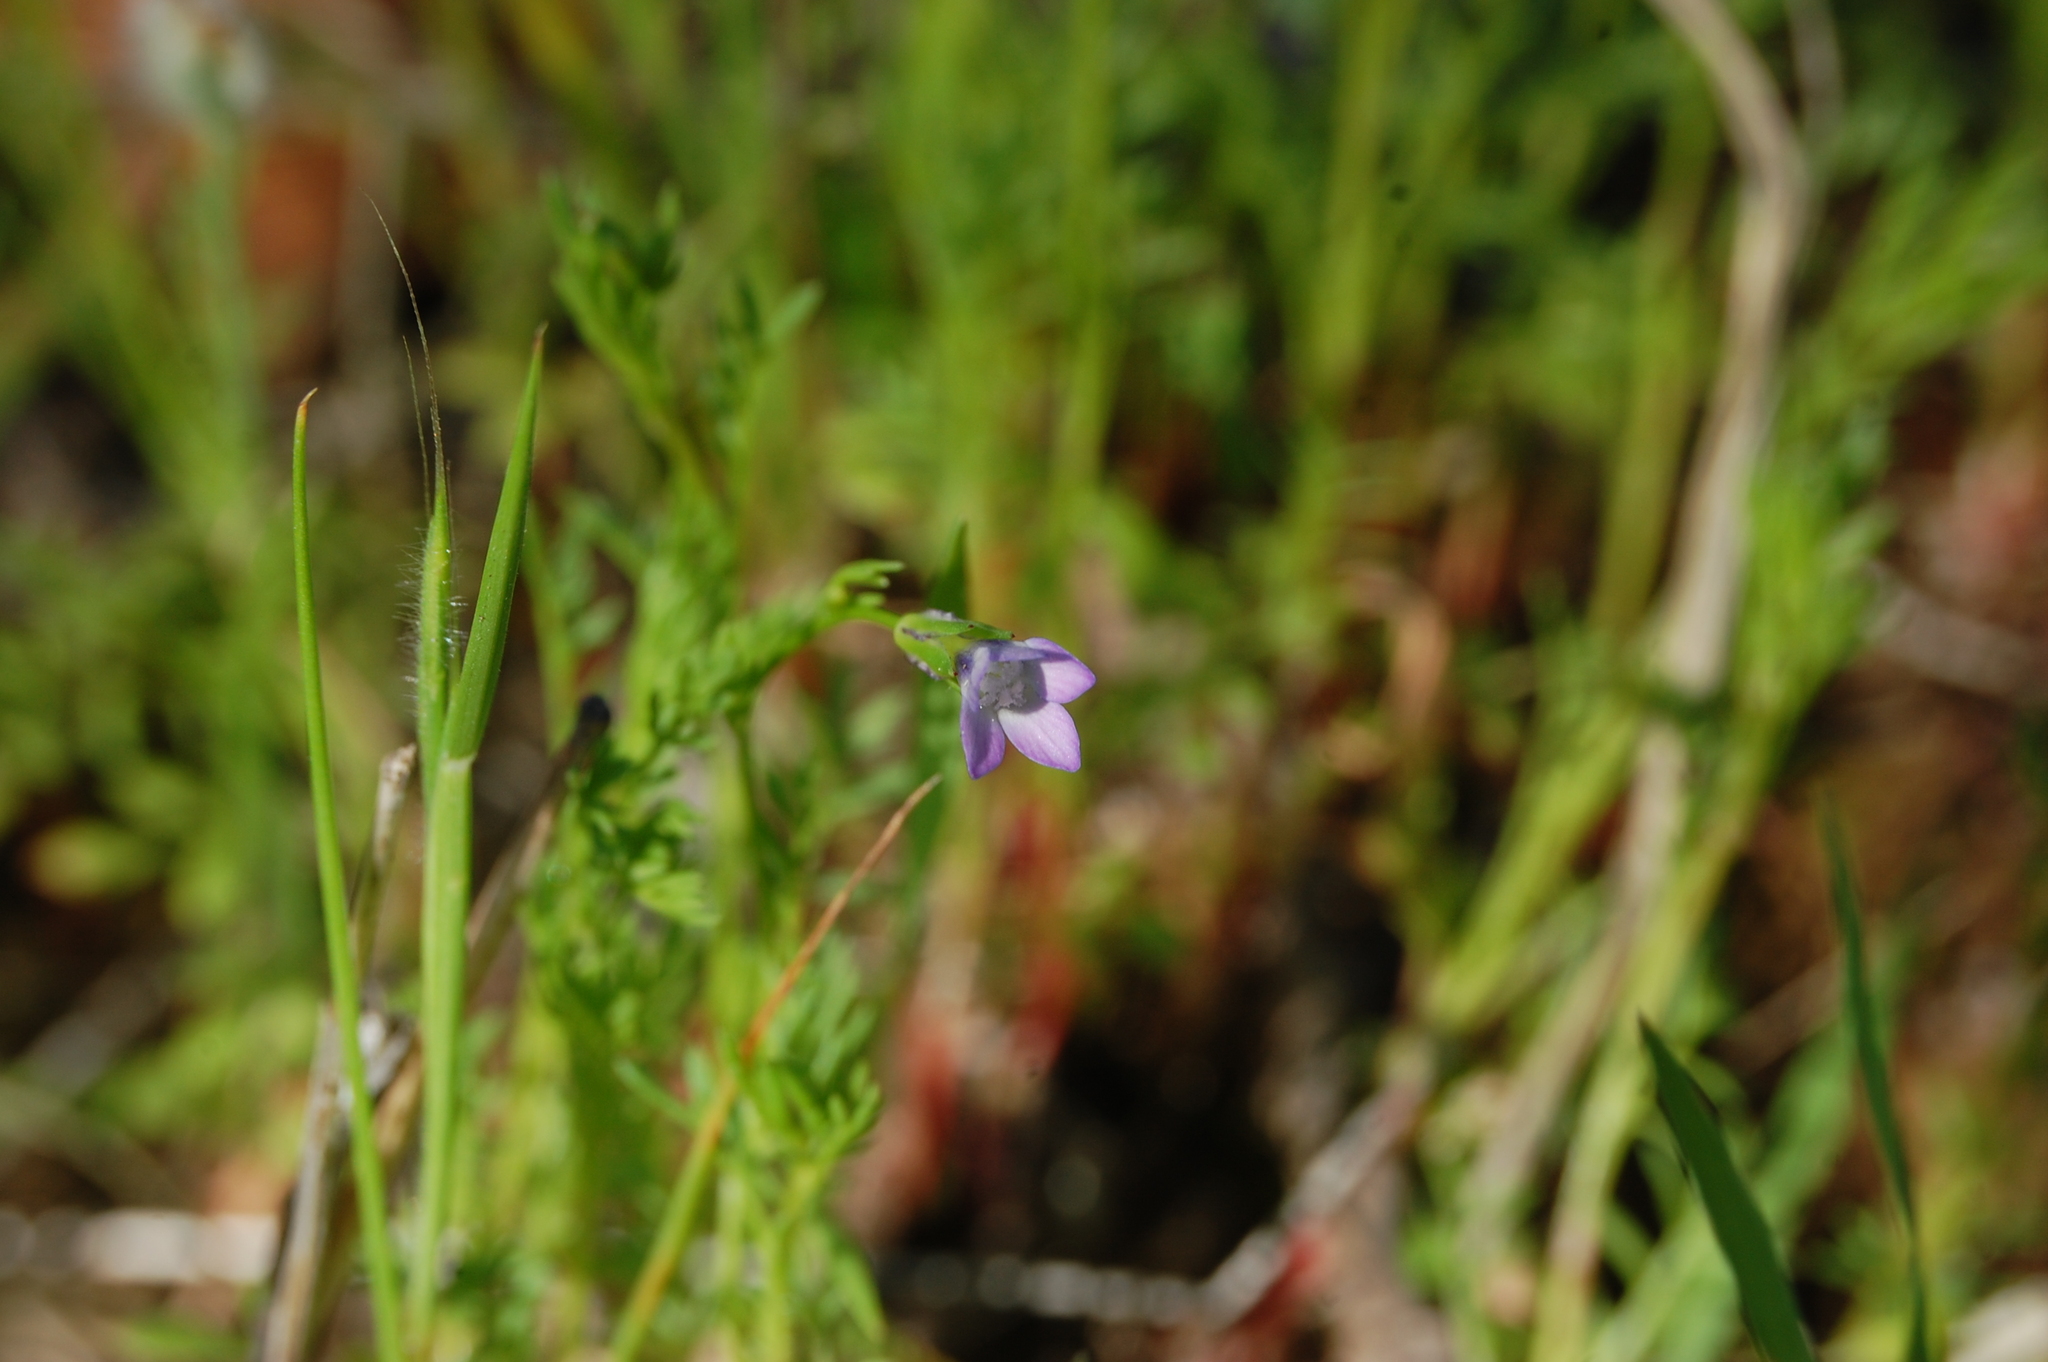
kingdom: Plantae
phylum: Tracheophyta
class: Magnoliopsida
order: Ericales
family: Polemoniaceae
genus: Gilia
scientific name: Gilia clivorum
